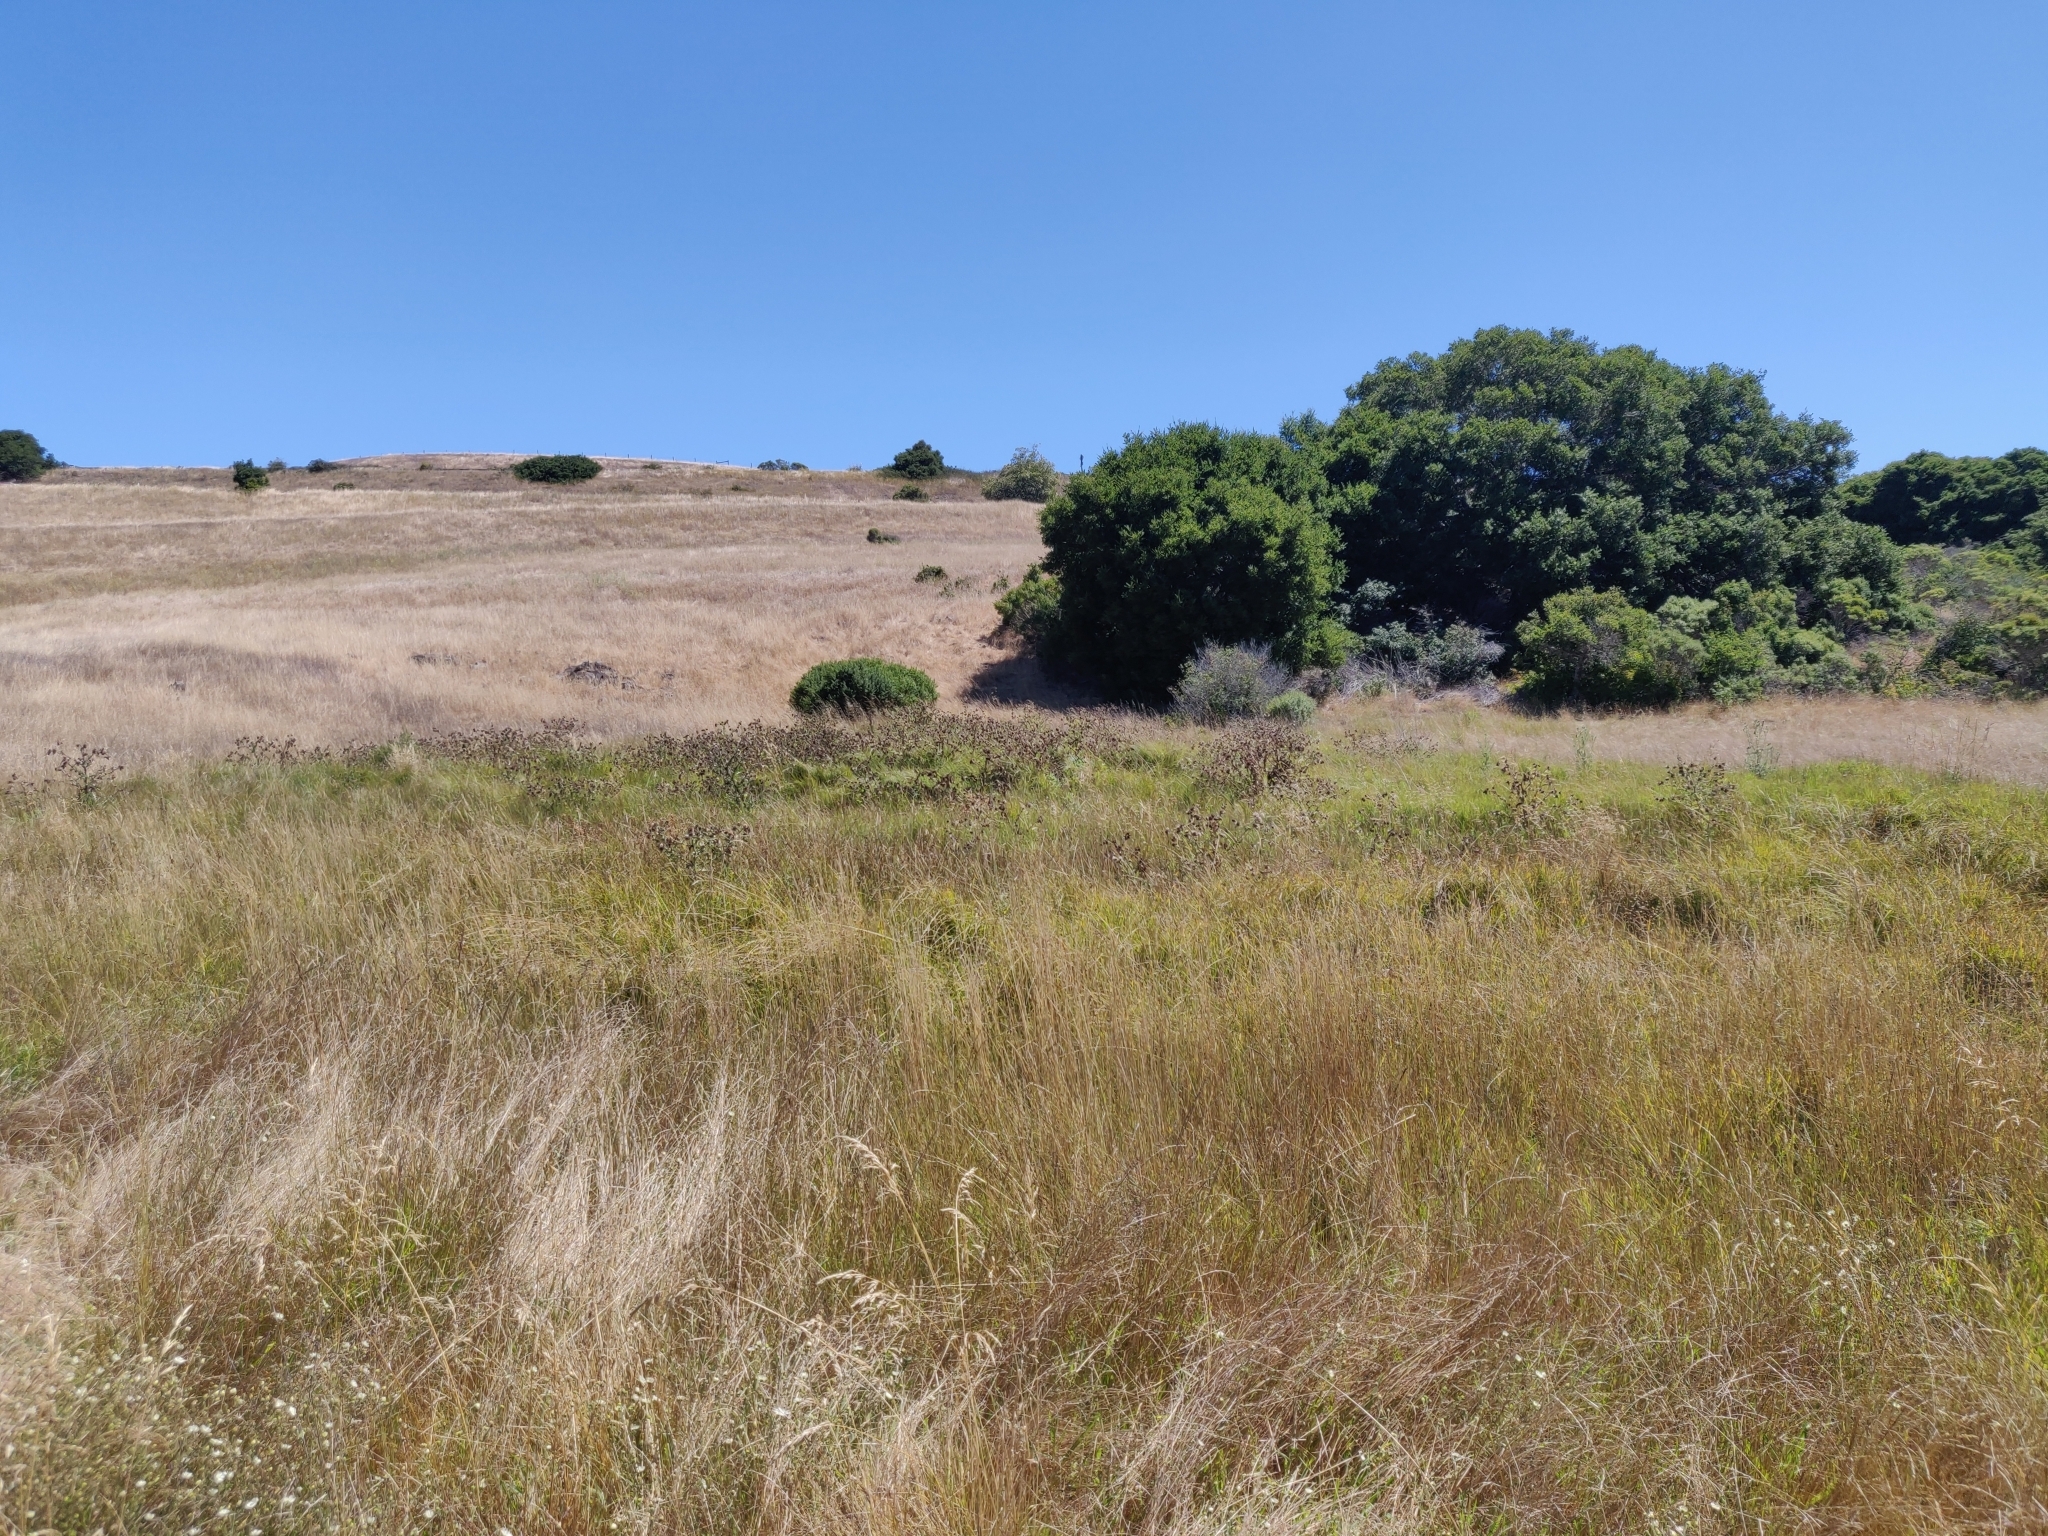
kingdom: Plantae
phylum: Tracheophyta
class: Magnoliopsida
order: Asterales
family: Asteraceae
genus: Cirsium
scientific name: Cirsium fontinale
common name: Fountain thistle
